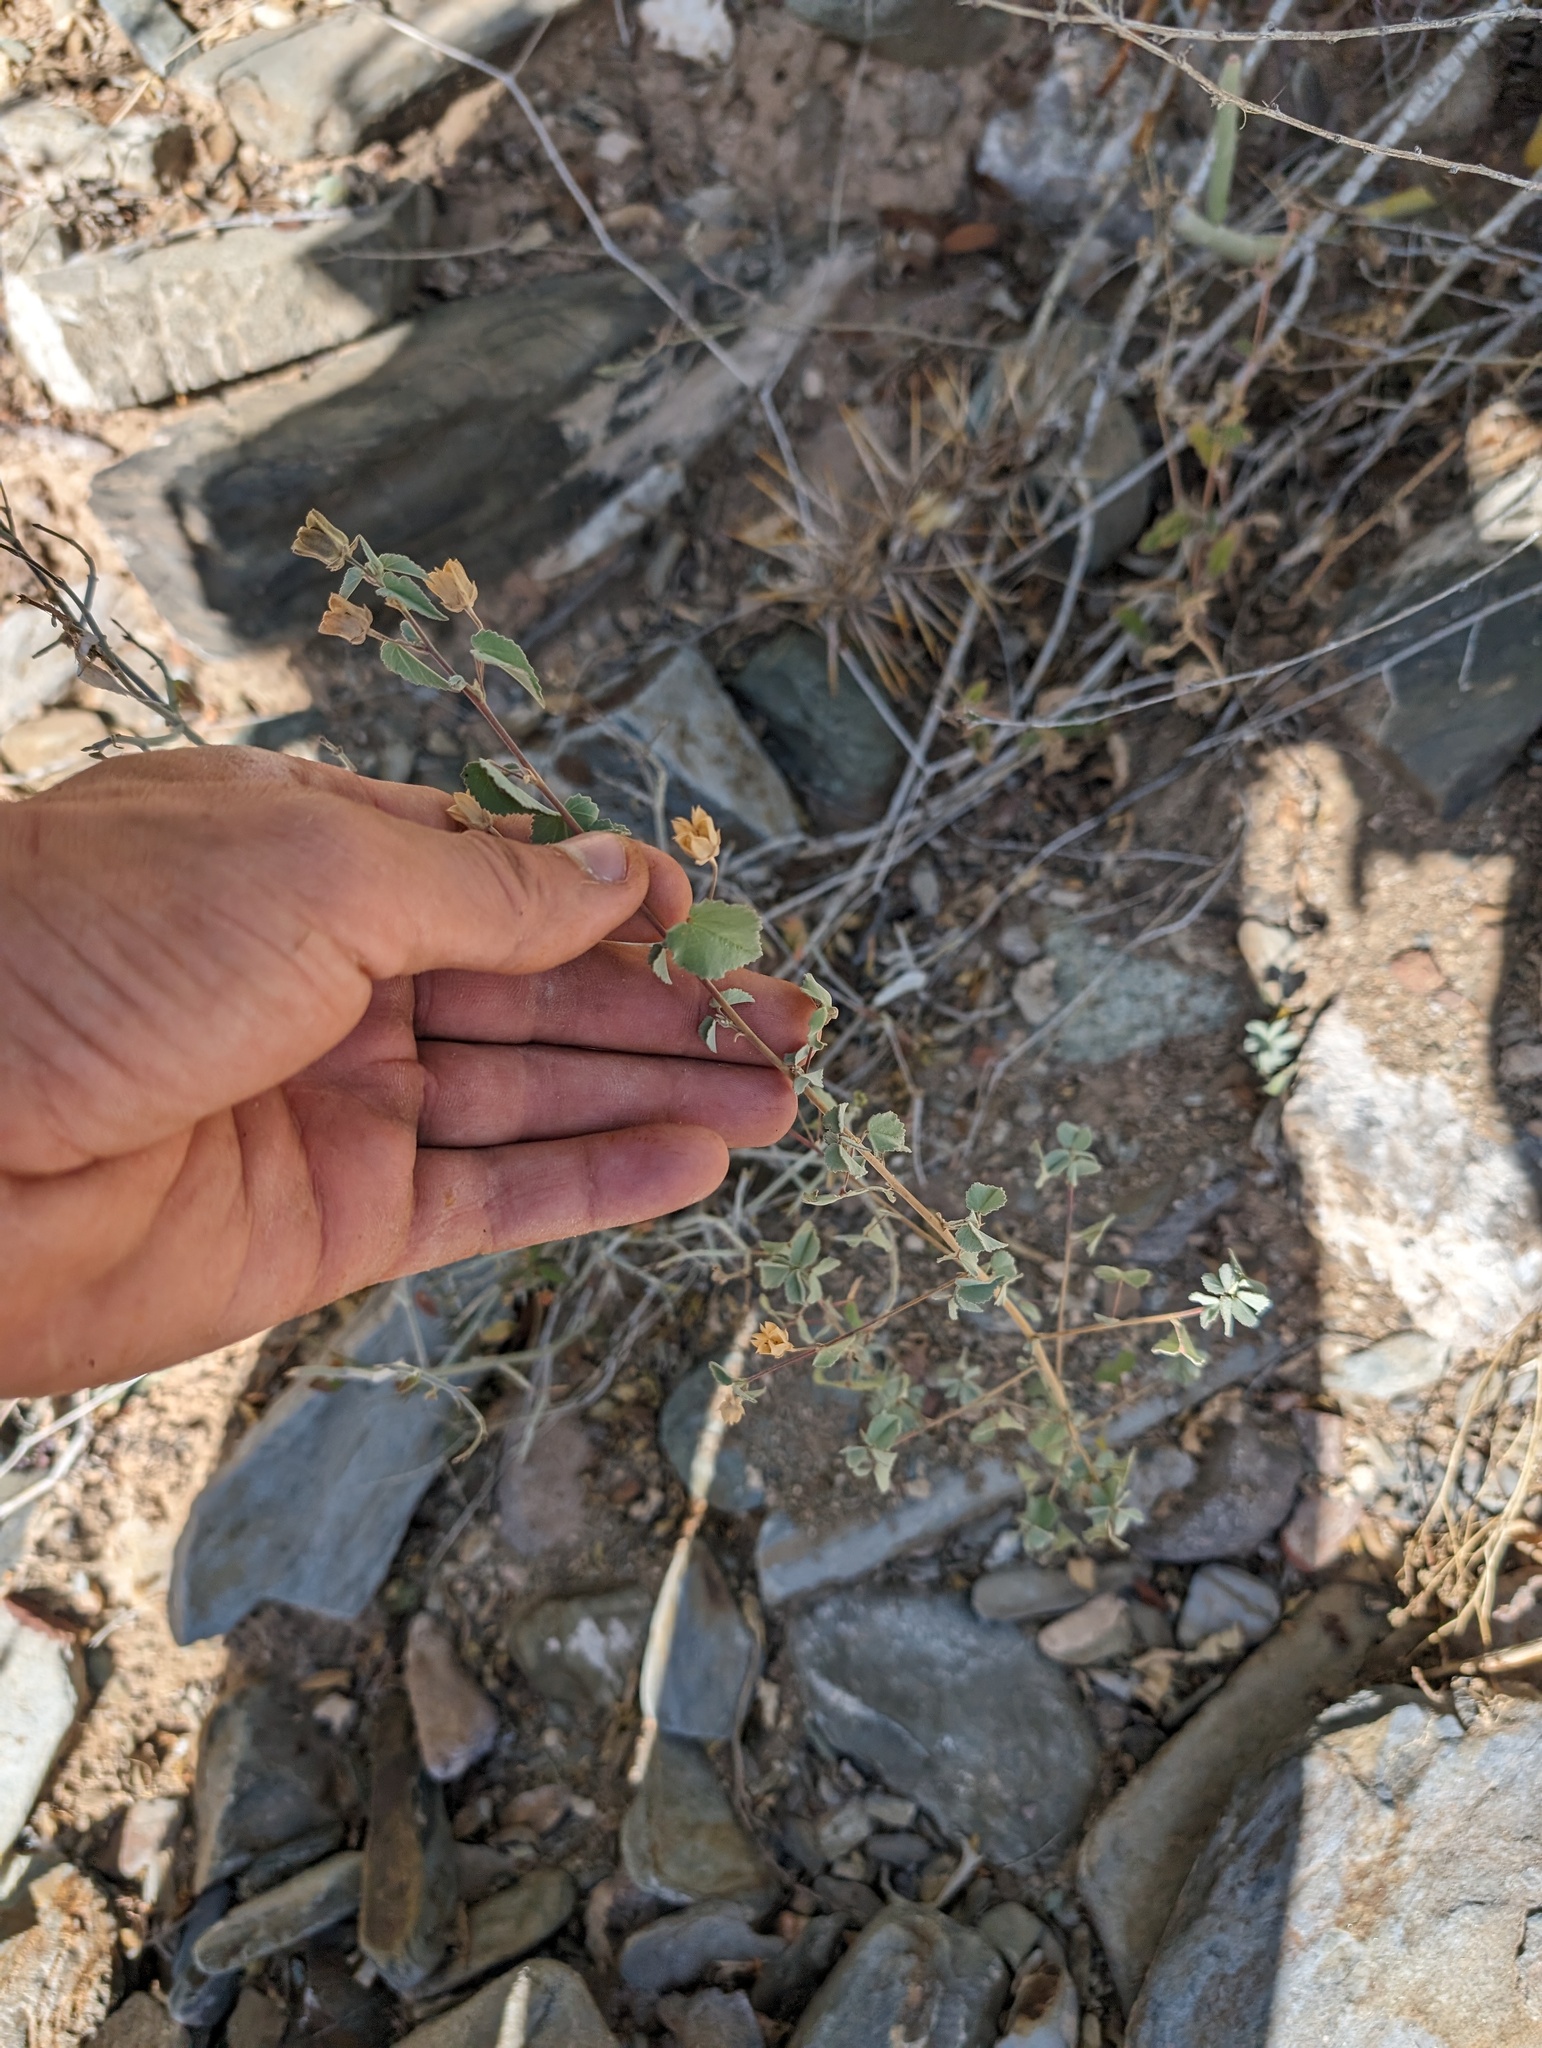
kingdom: Plantae
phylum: Tracheophyta
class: Magnoliopsida
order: Malvales
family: Malvaceae
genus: Abutilon
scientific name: Abutilon incanum
